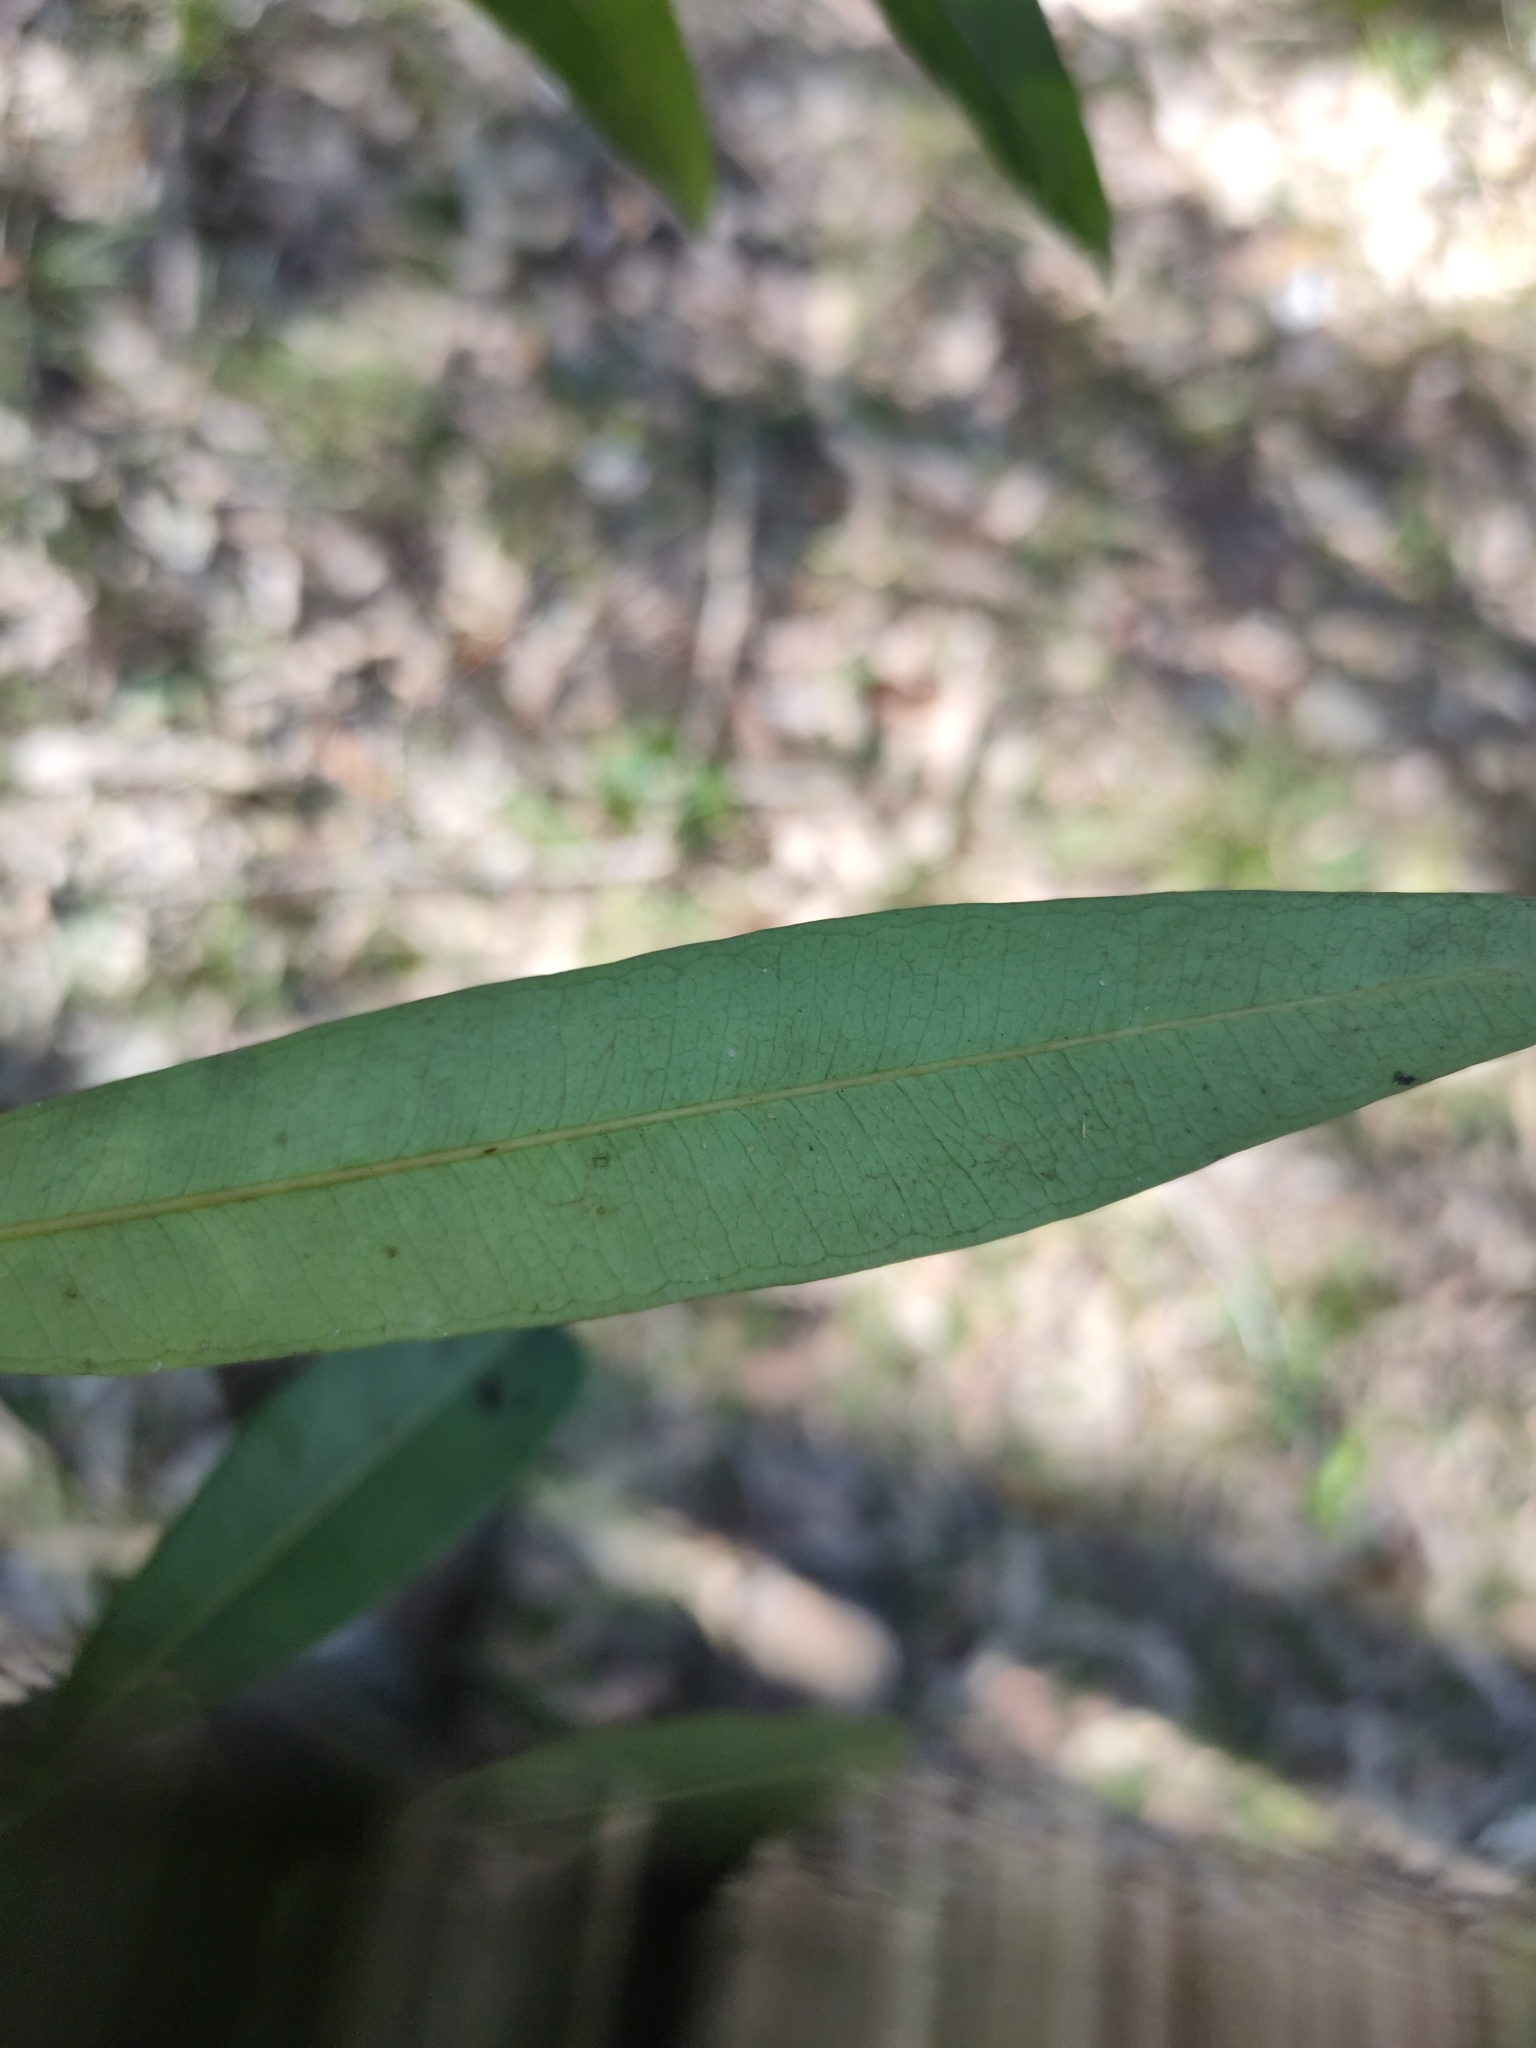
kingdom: Plantae
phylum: Tracheophyta
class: Magnoliopsida
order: Sapindales
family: Simaroubaceae
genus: Samadera
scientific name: Samadera bidwillii
